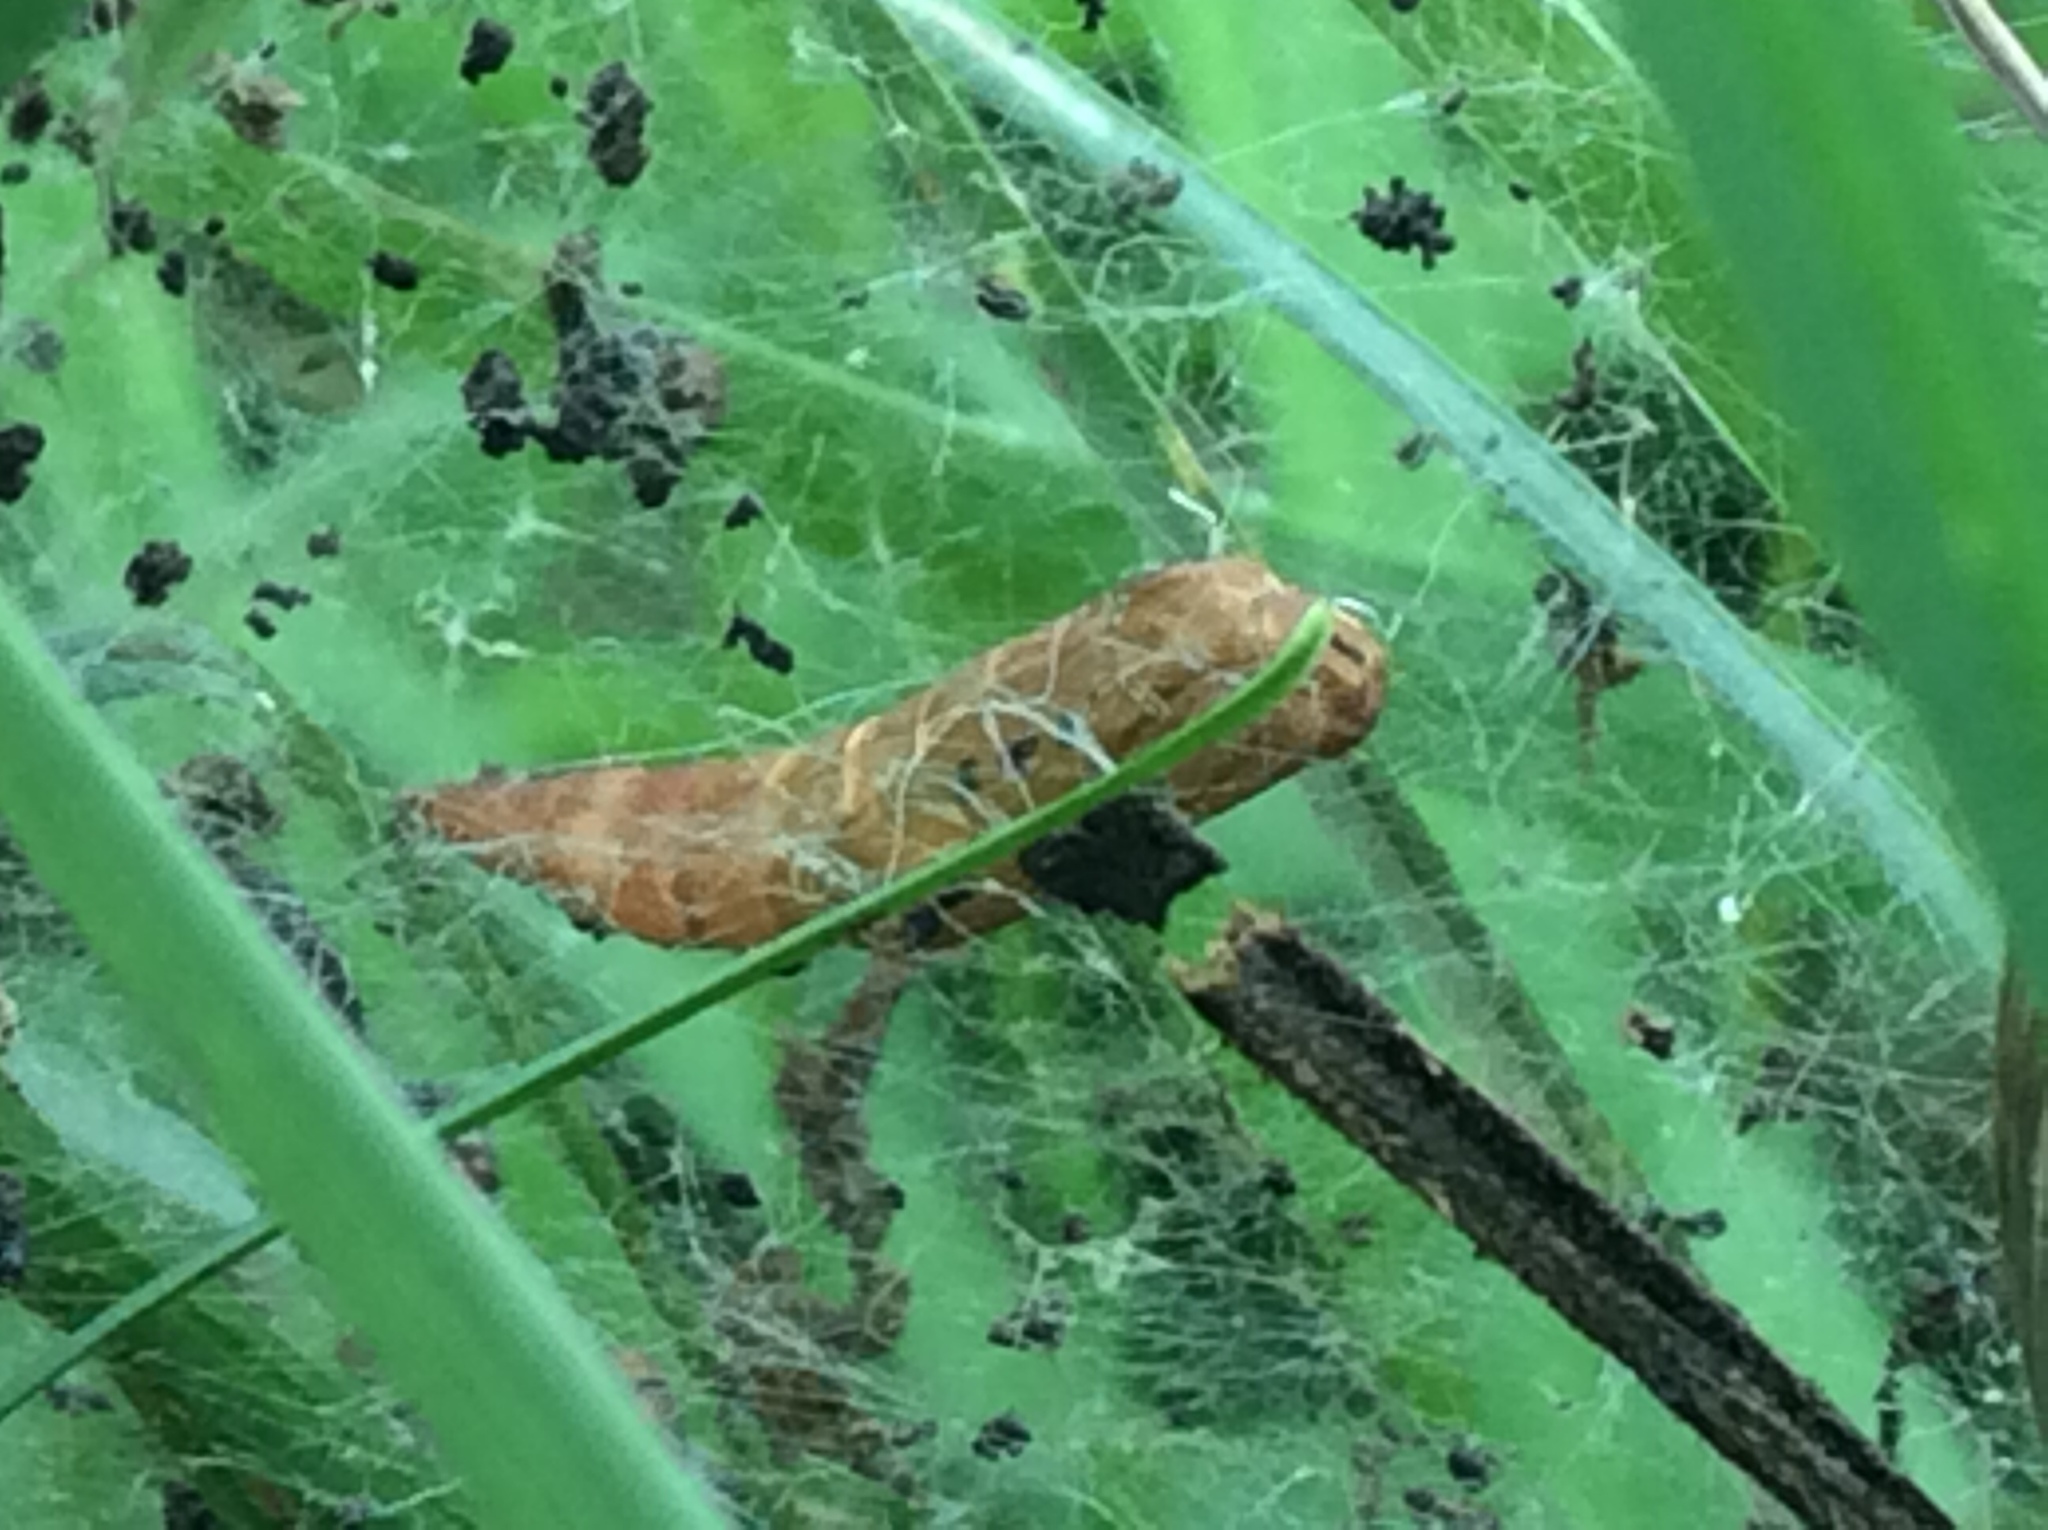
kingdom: Animalia
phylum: Arthropoda
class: Insecta
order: Lepidoptera
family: Attevidae
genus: Atteva
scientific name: Atteva punctella
